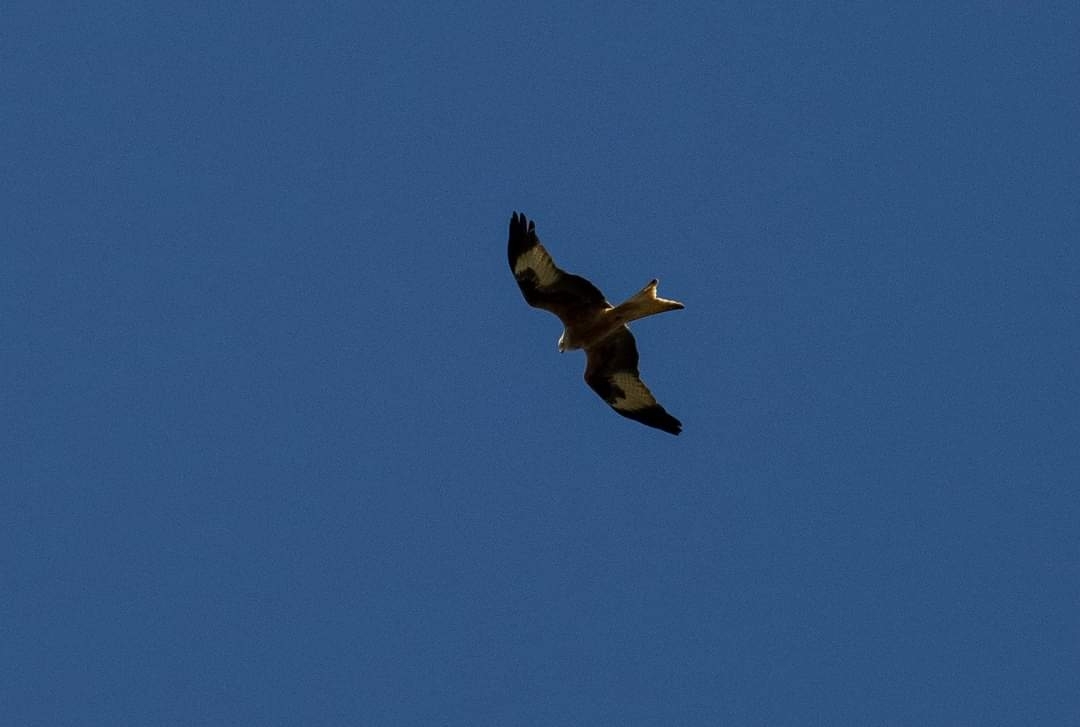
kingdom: Animalia
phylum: Chordata
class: Aves
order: Accipitriformes
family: Accipitridae
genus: Milvus
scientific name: Milvus milvus
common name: Red kite
